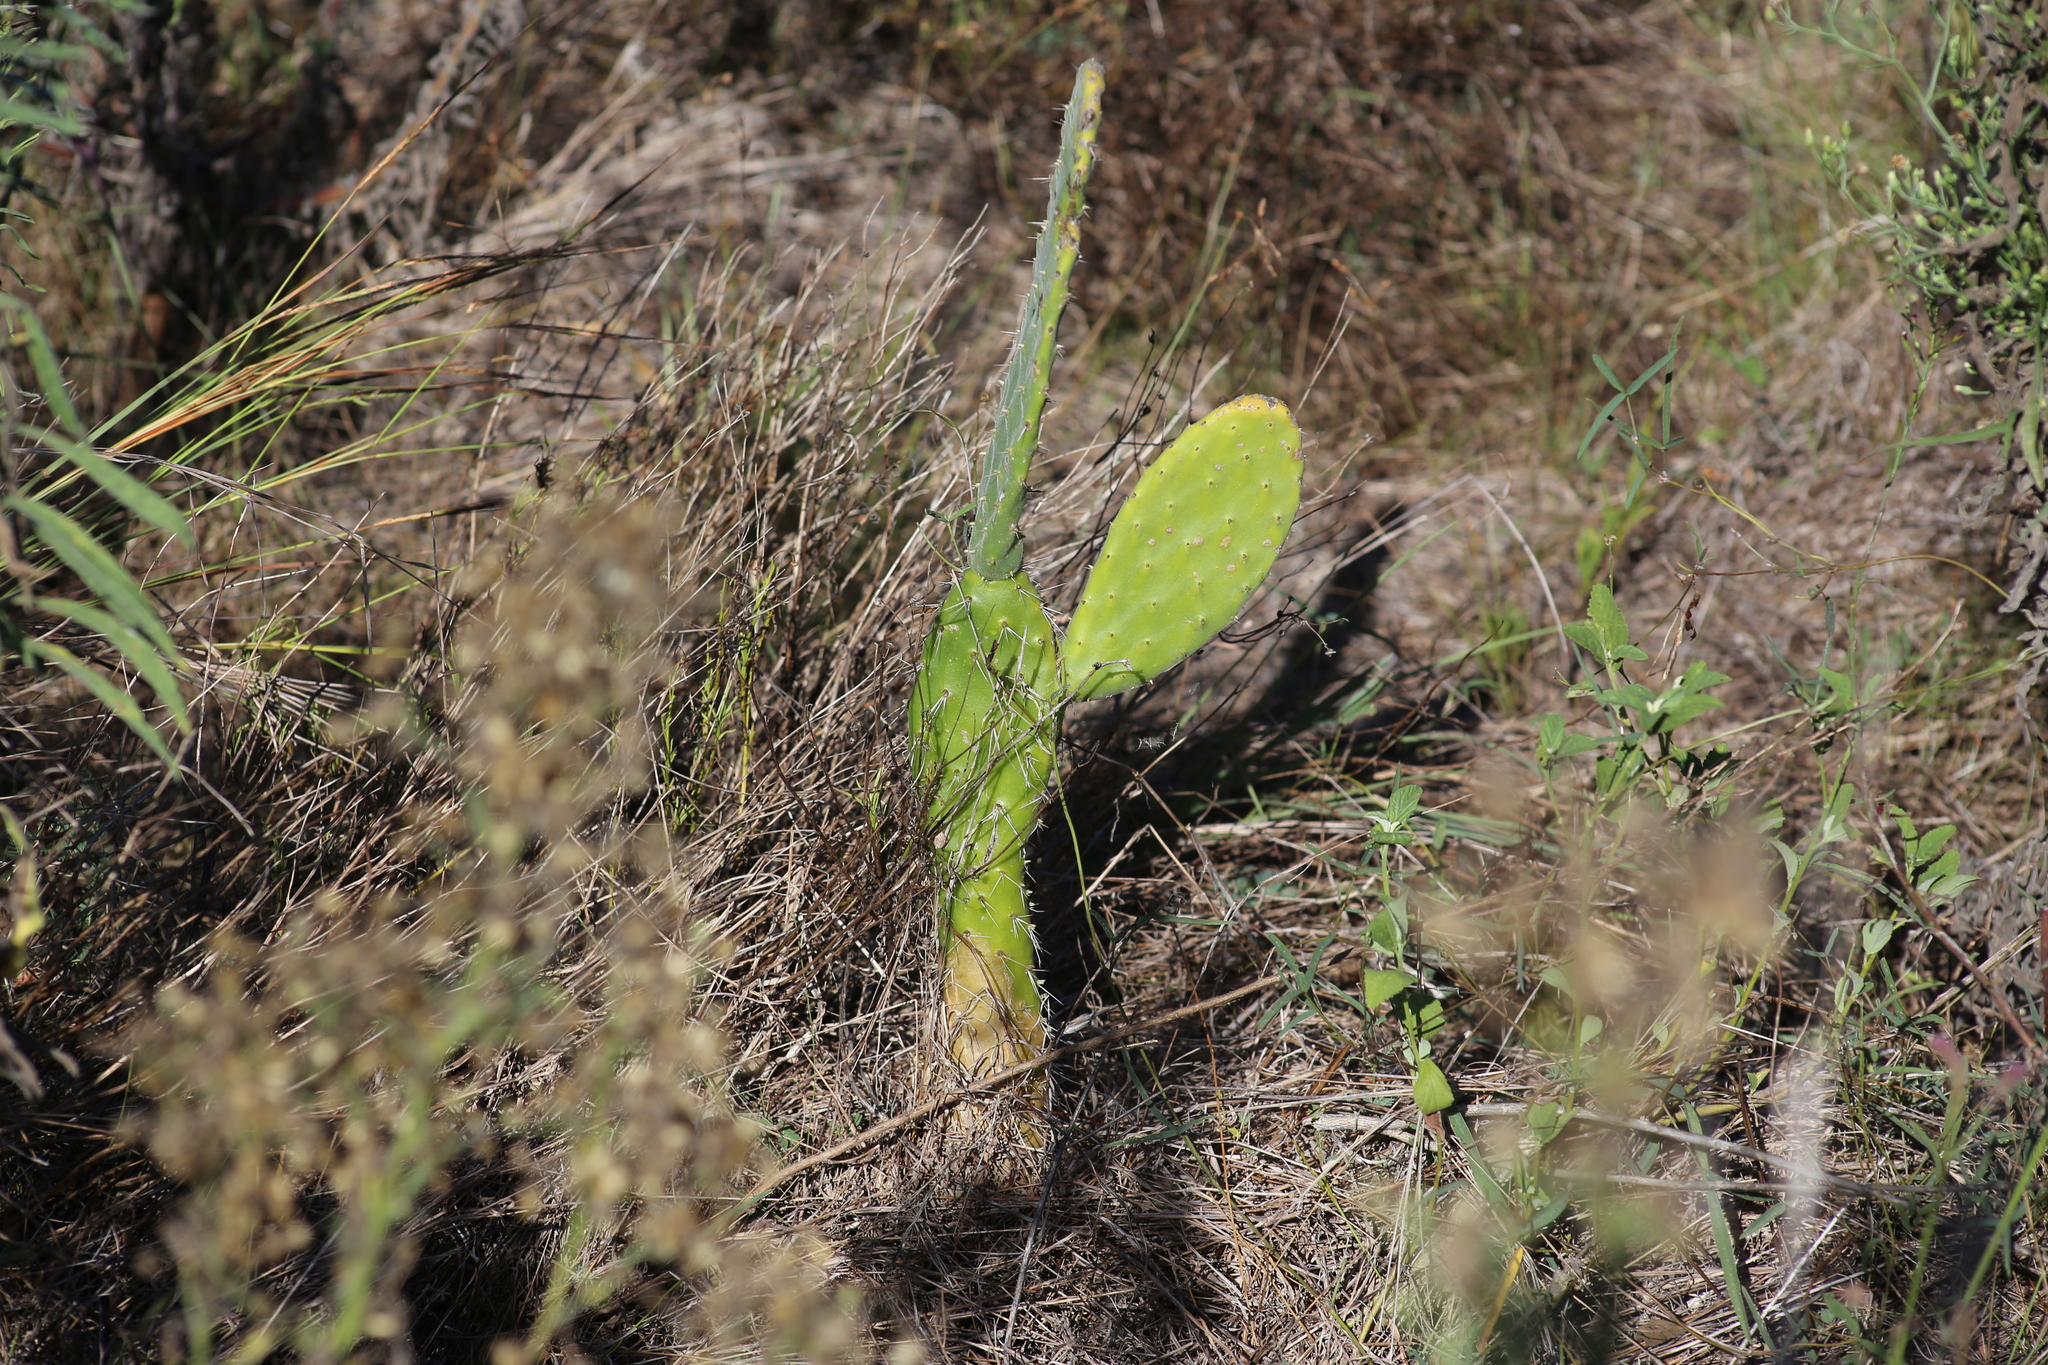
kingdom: Plantae
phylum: Tracheophyta
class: Magnoliopsida
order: Caryophyllales
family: Cactaceae
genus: Opuntia
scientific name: Opuntia tomentosa
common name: Woollyjoint pricklypear
